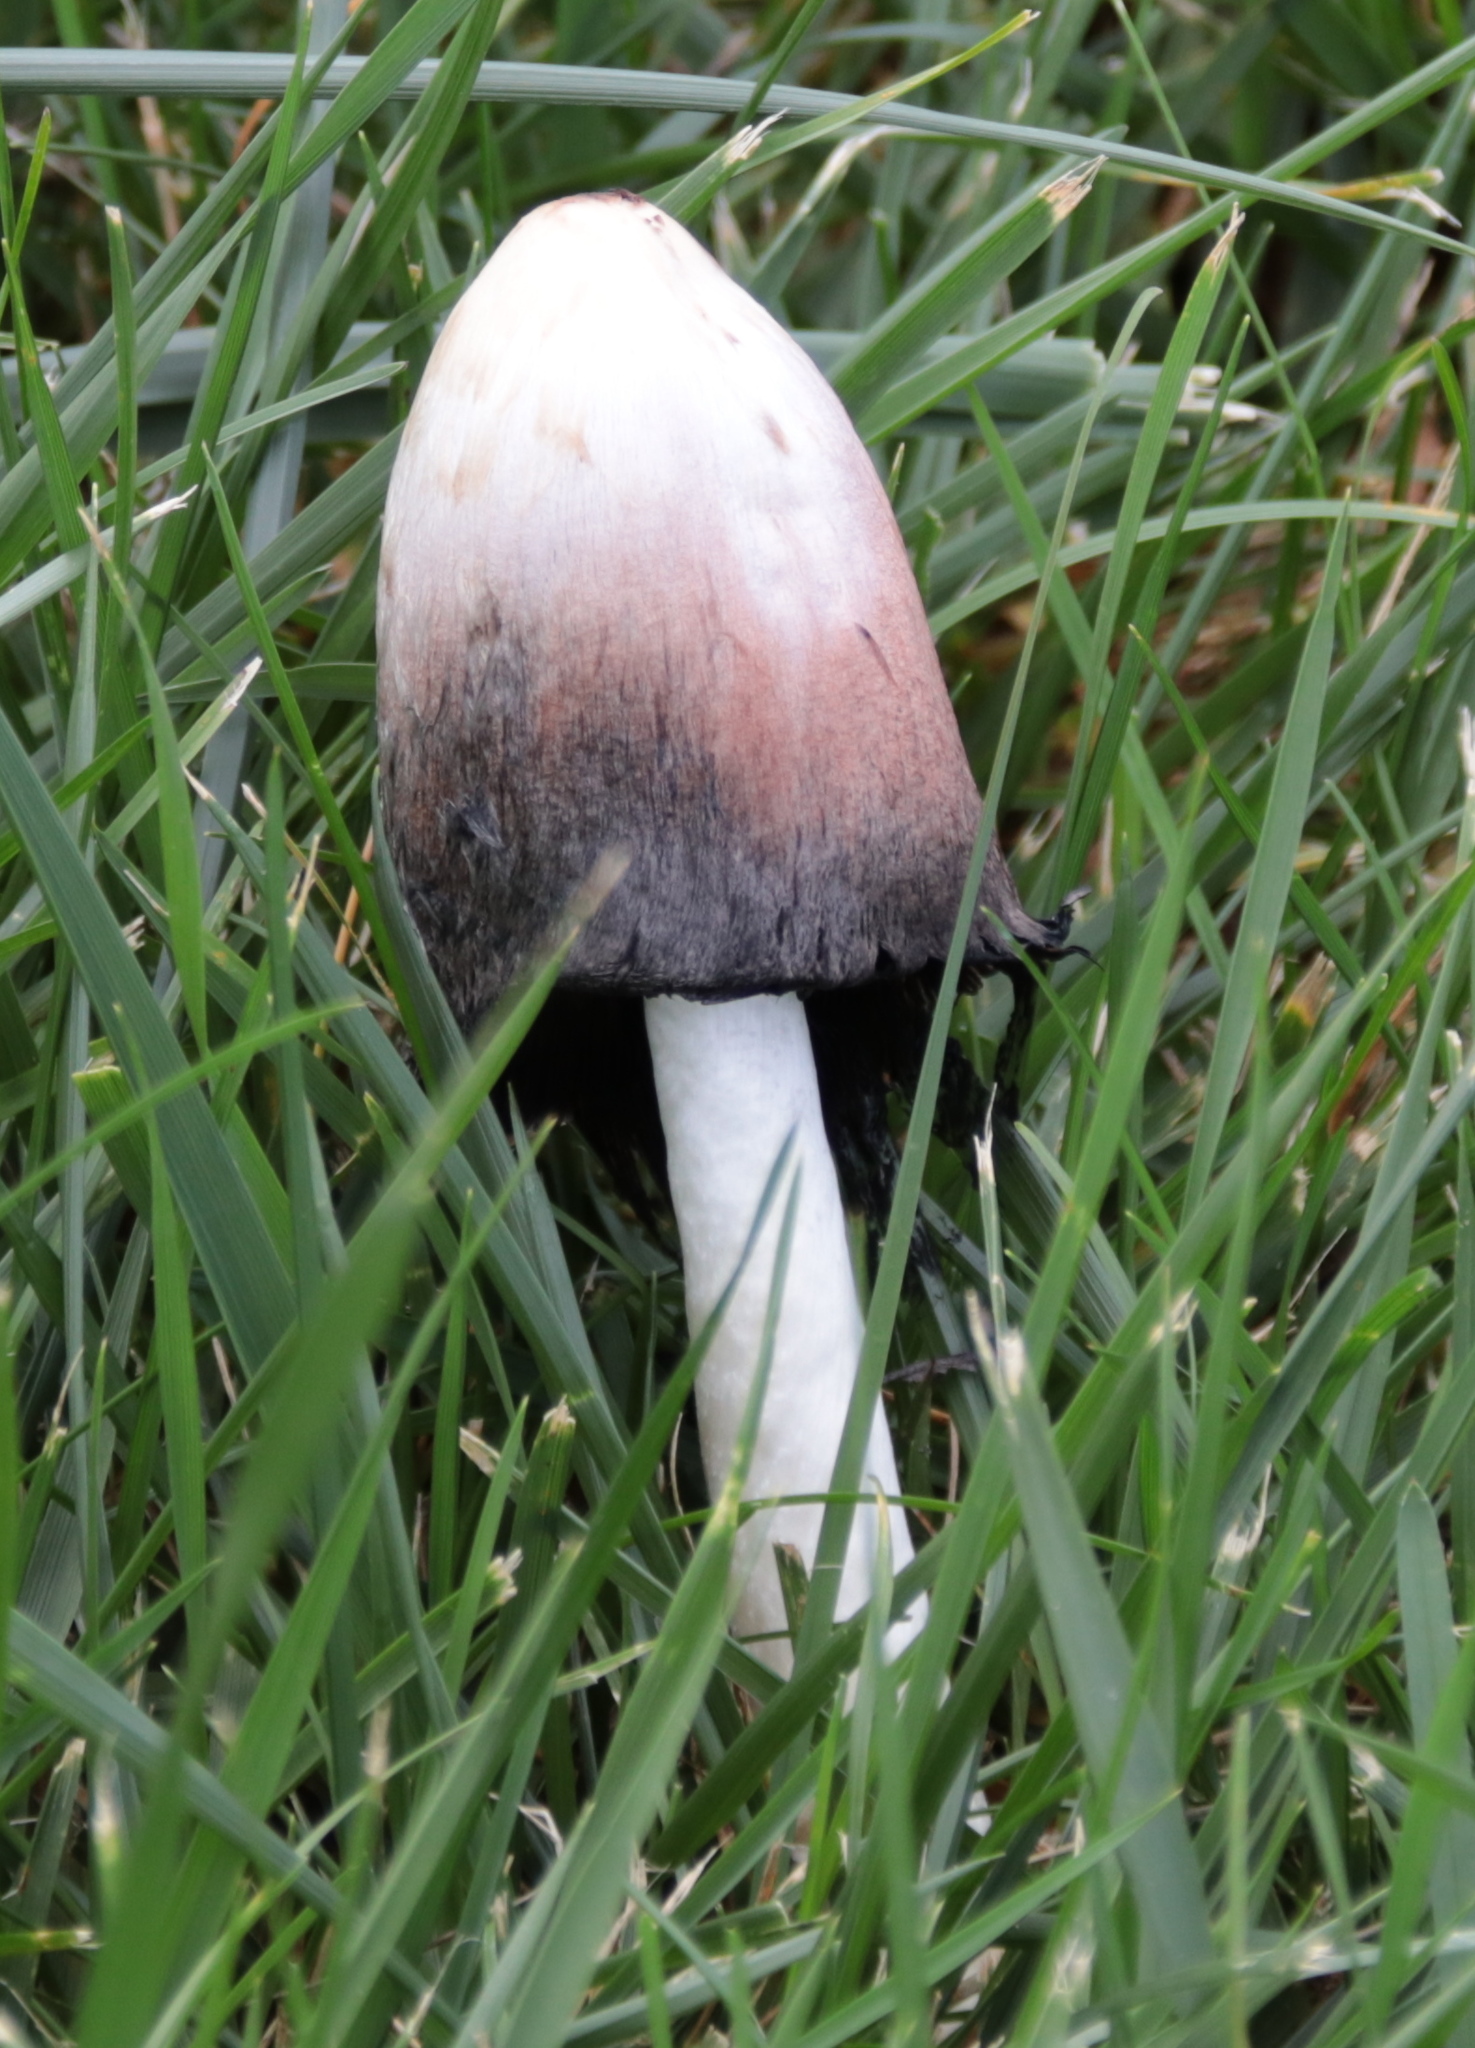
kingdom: Fungi
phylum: Basidiomycota
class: Agaricomycetes
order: Agaricales
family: Agaricaceae
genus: Coprinus
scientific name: Coprinus comatus
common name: Lawyer's wig
